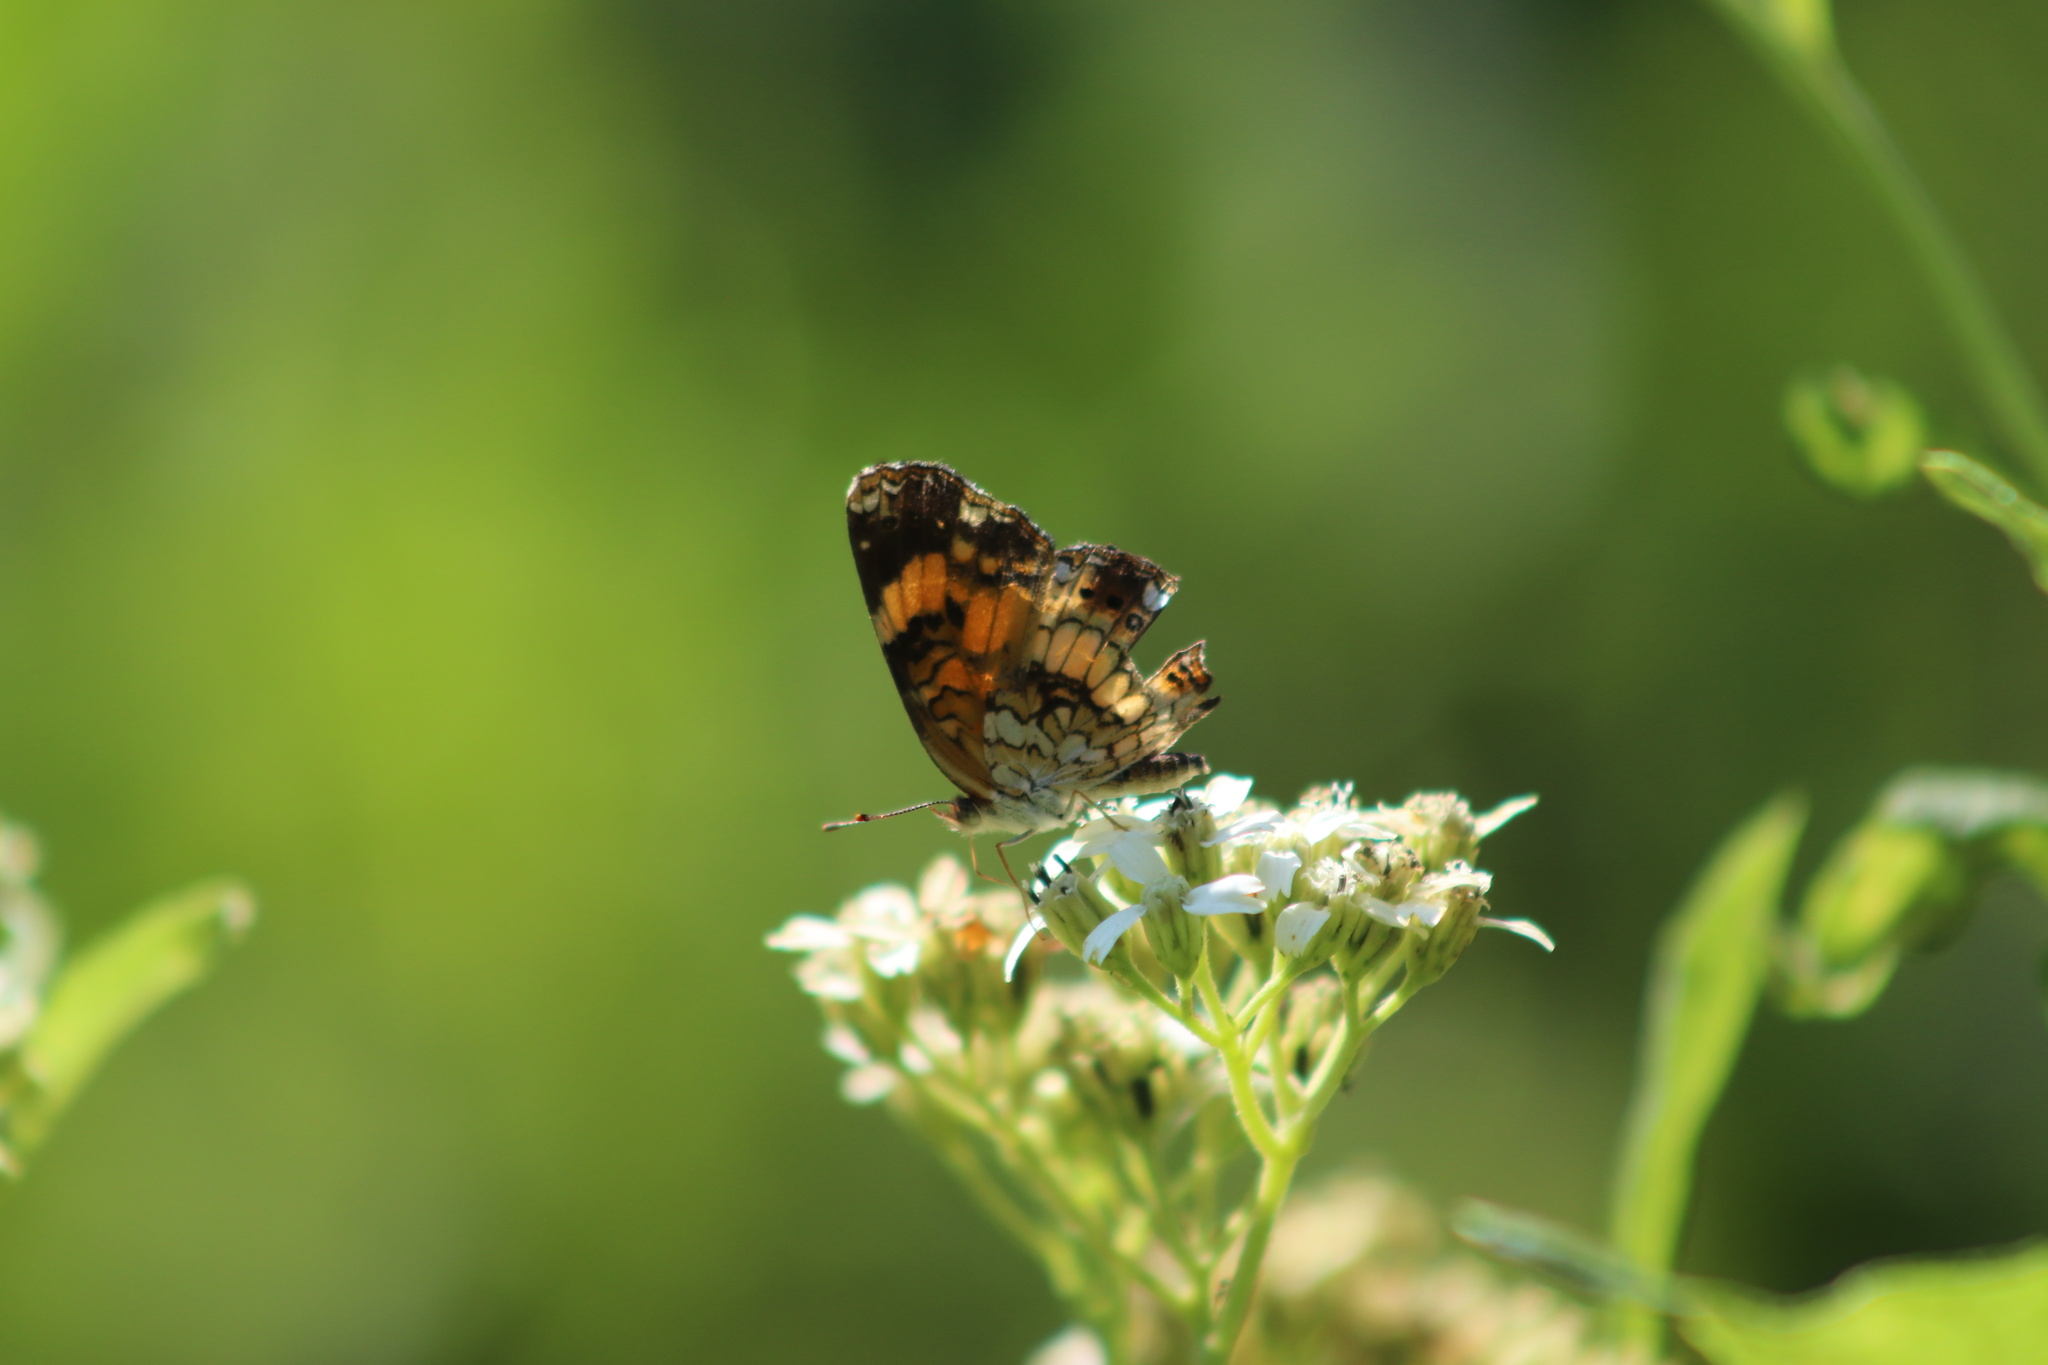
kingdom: Animalia
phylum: Arthropoda
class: Insecta
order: Lepidoptera
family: Nymphalidae
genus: Chlosyne
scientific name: Chlosyne nycteis
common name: Silvery checkerspot
